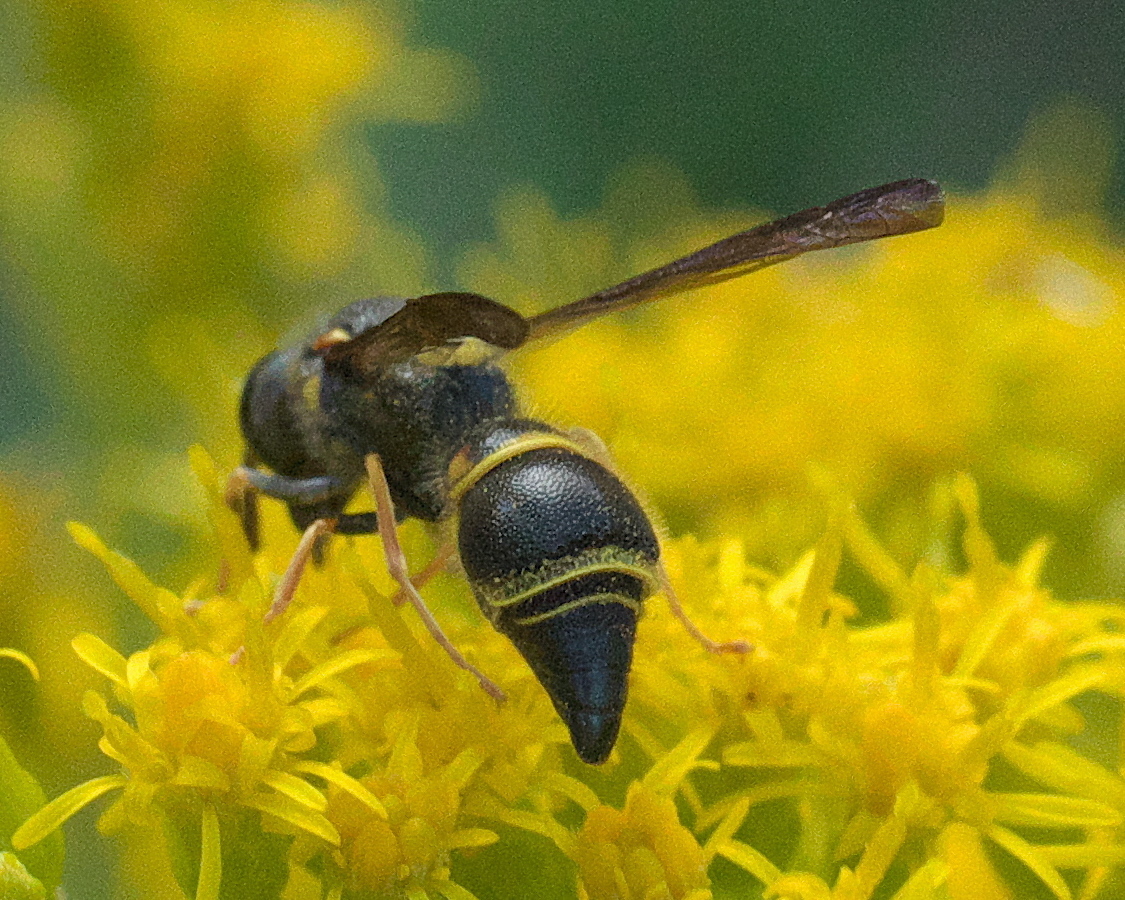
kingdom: Animalia
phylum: Arthropoda
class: Insecta
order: Hymenoptera
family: Vespidae
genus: Ancistrocerus
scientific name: Ancistrocerus campestris
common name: Smiling mason wasp
